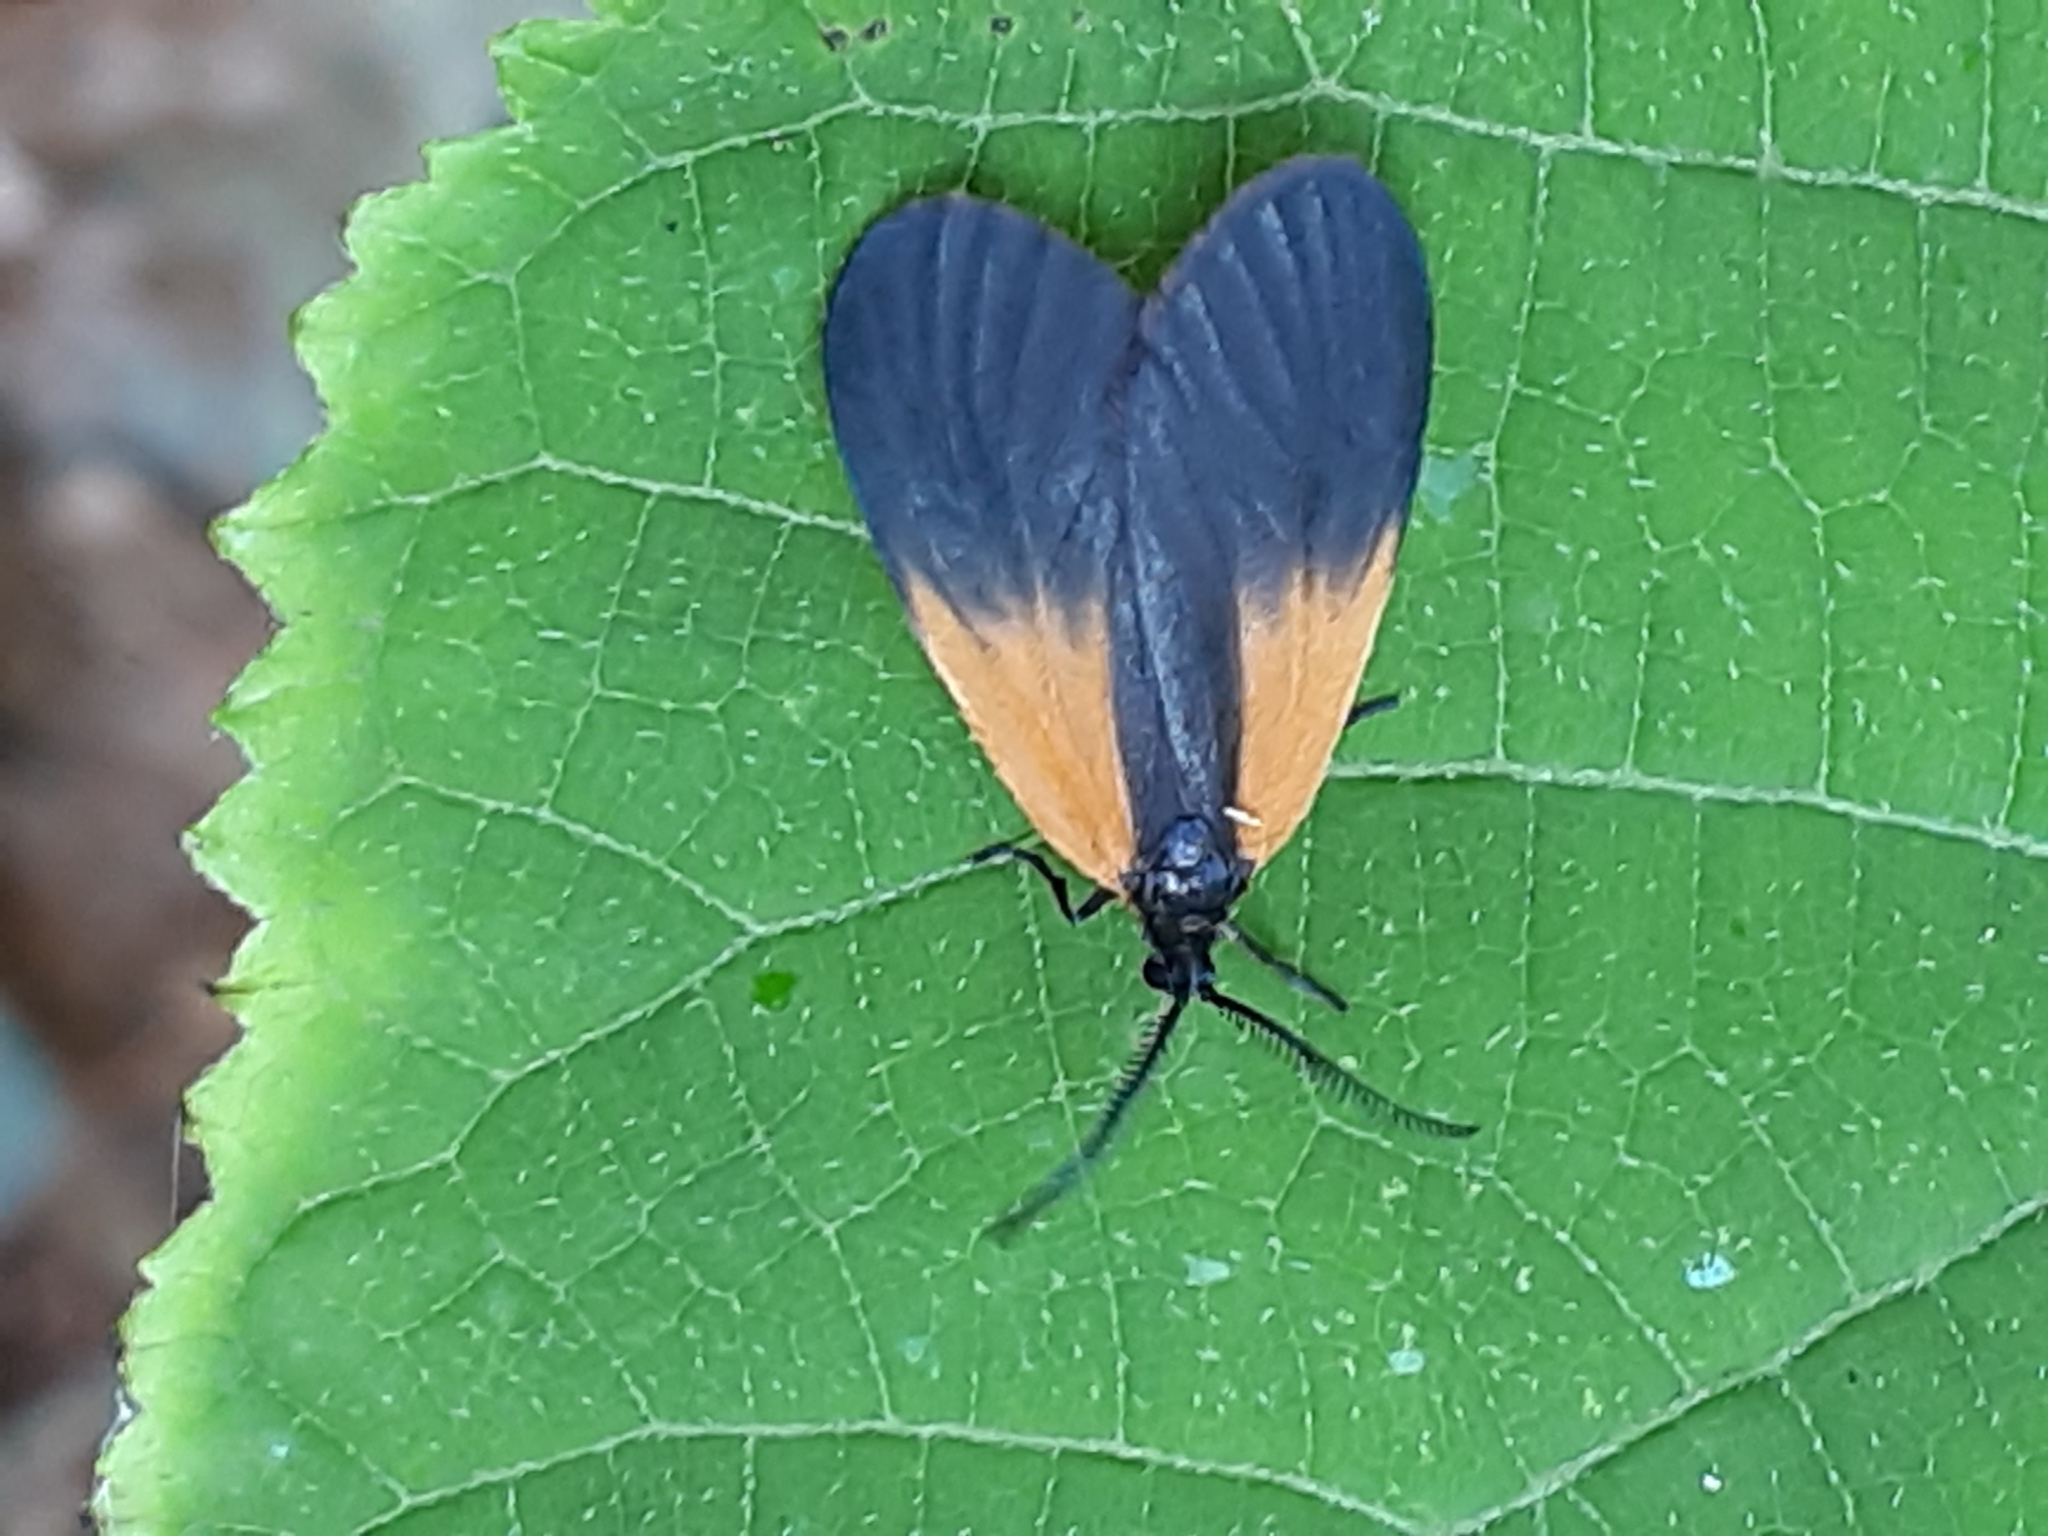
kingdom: Animalia
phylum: Arthropoda
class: Insecta
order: Lepidoptera
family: Zygaenidae
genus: Malthaca
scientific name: Malthaca dimidiata
